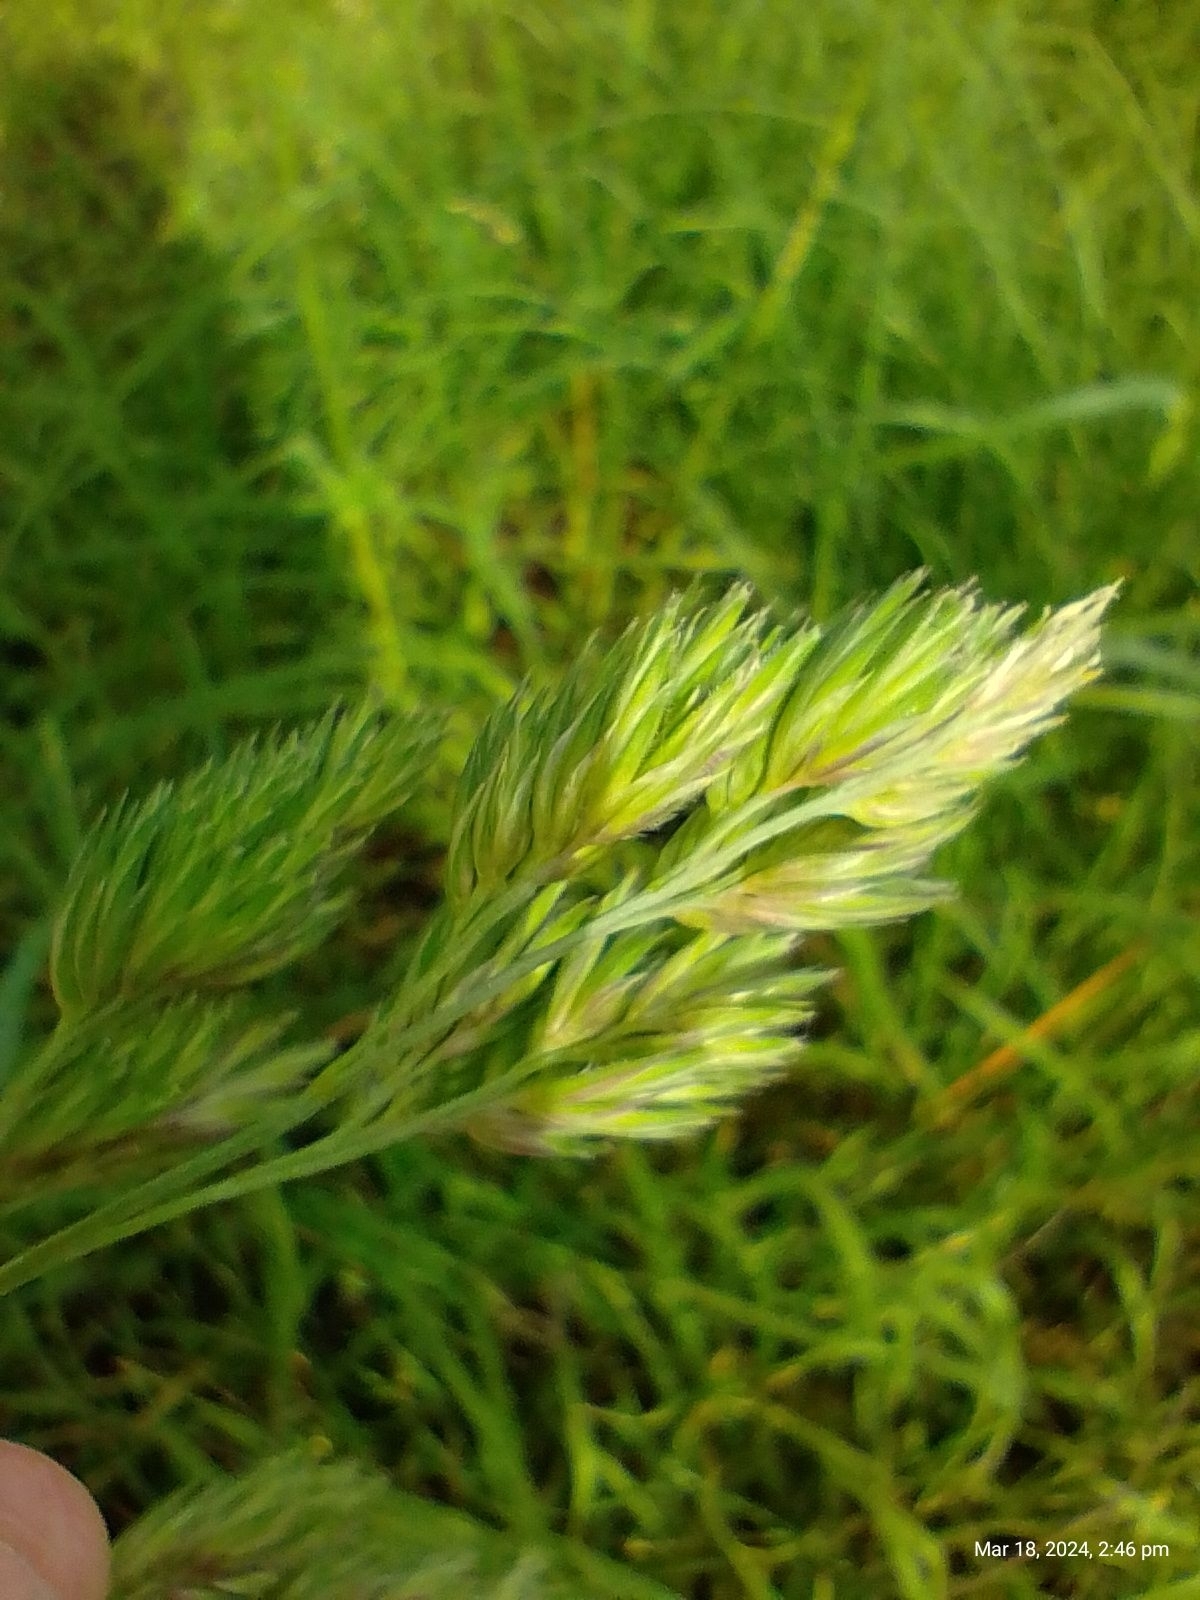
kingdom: Plantae
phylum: Tracheophyta
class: Liliopsida
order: Poales
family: Poaceae
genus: Dactylis
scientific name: Dactylis glomerata
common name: Orchardgrass
